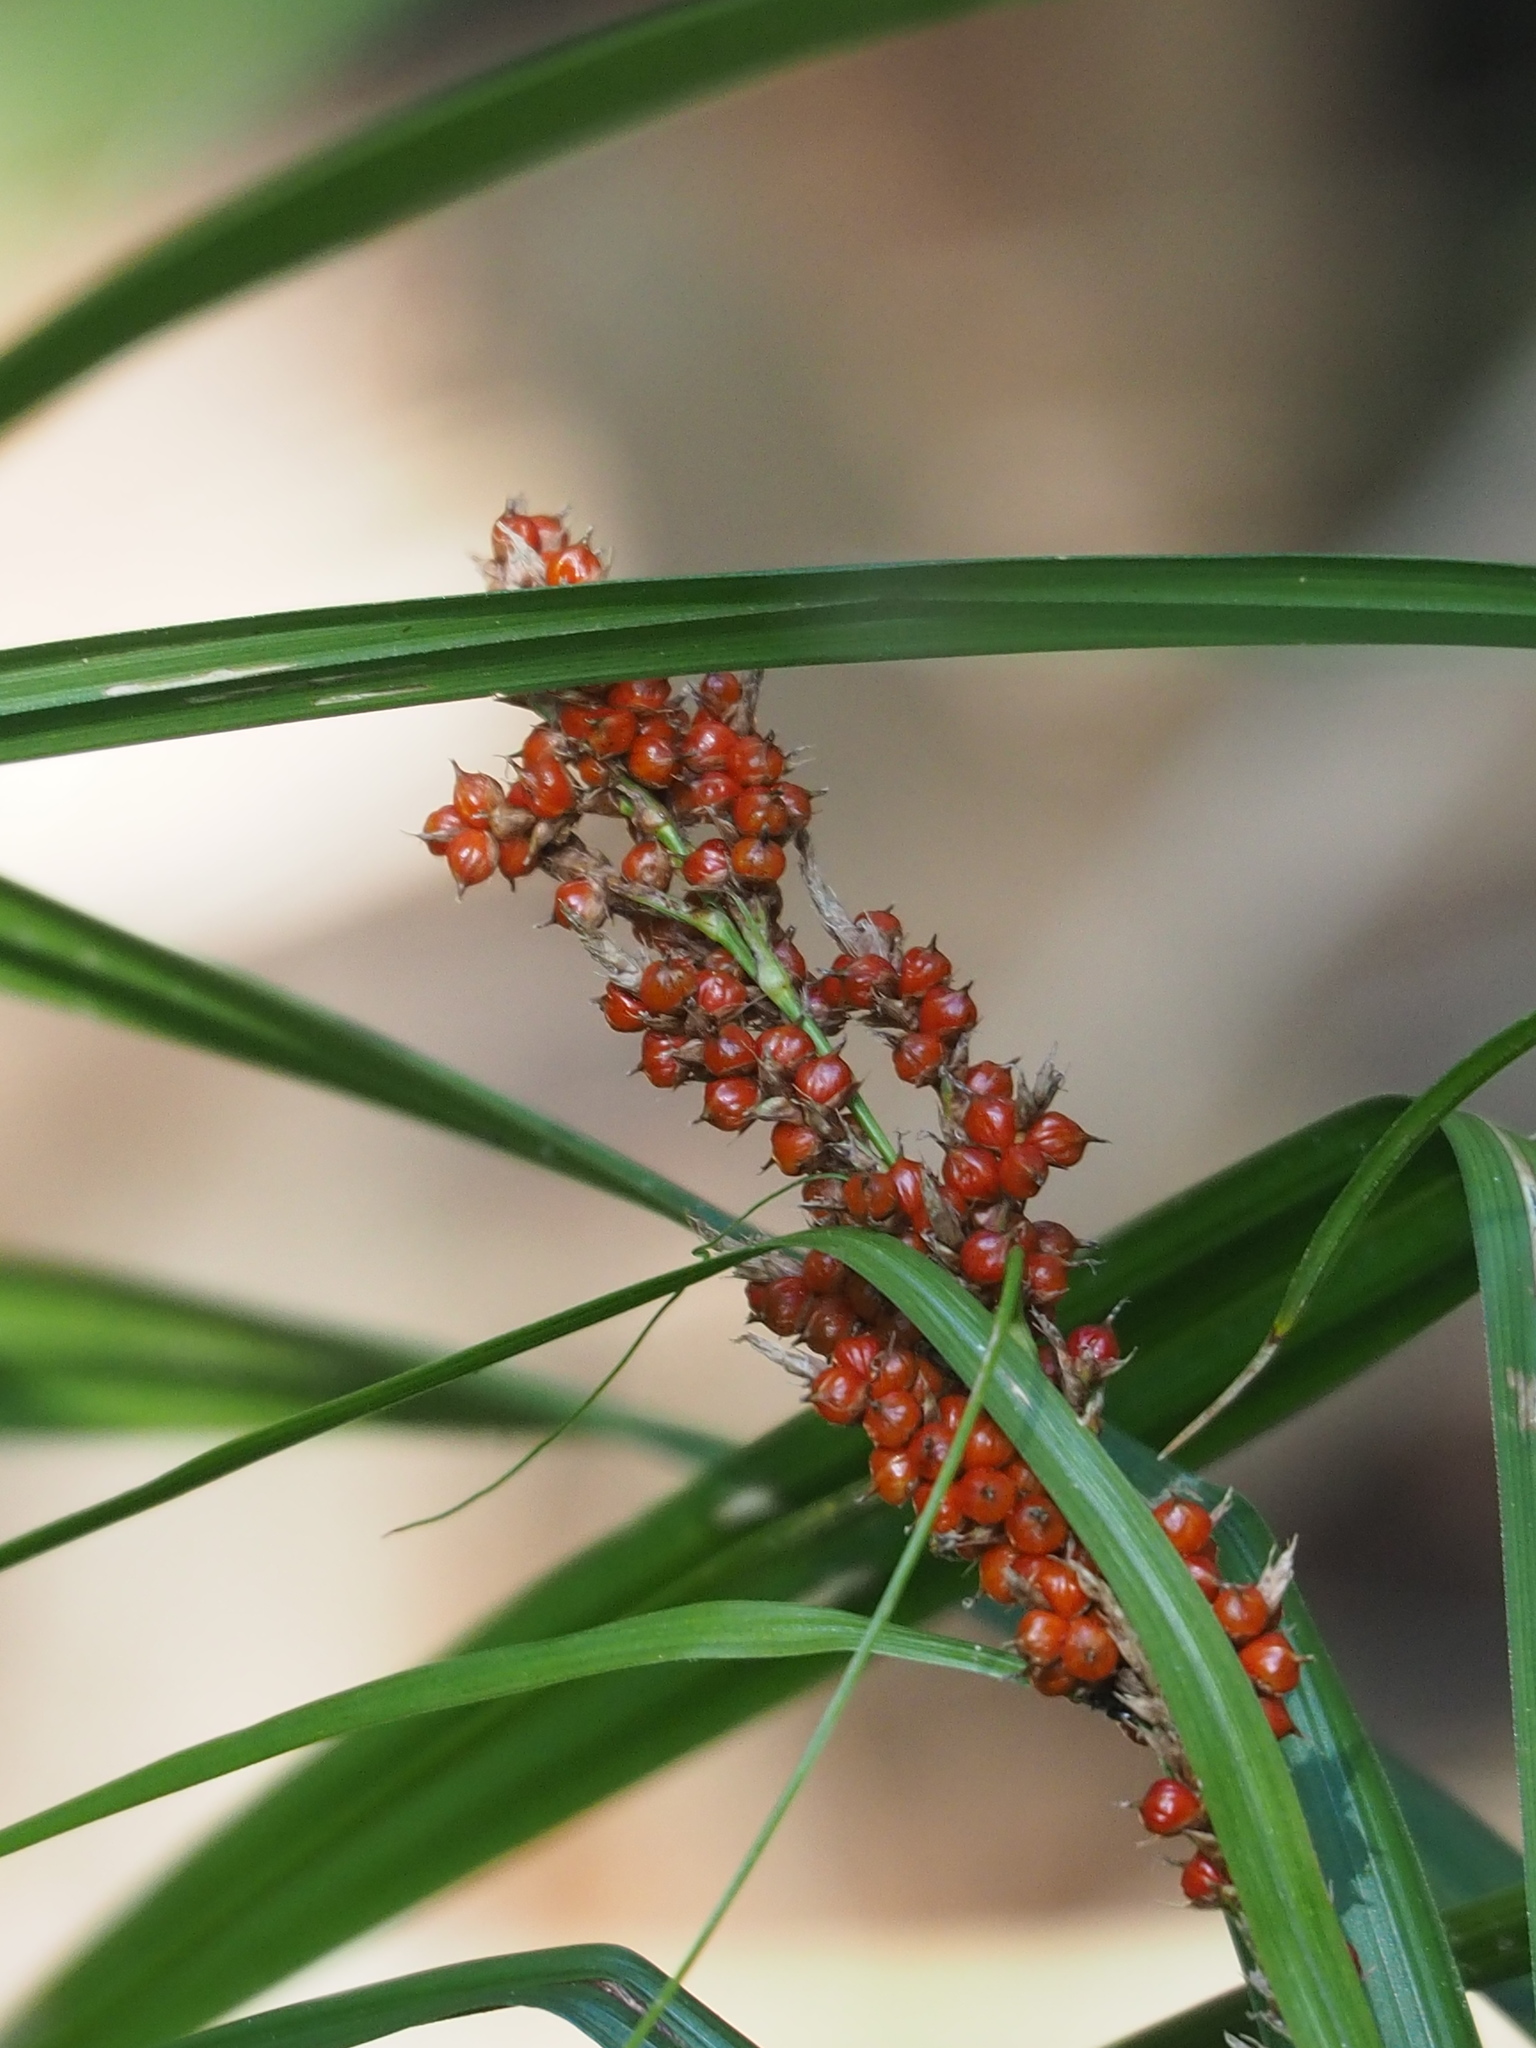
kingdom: Plantae
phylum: Tracheophyta
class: Liliopsida
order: Poales
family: Cyperaceae
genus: Carex
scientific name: Carex baccans
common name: Crimson seeded sedge
